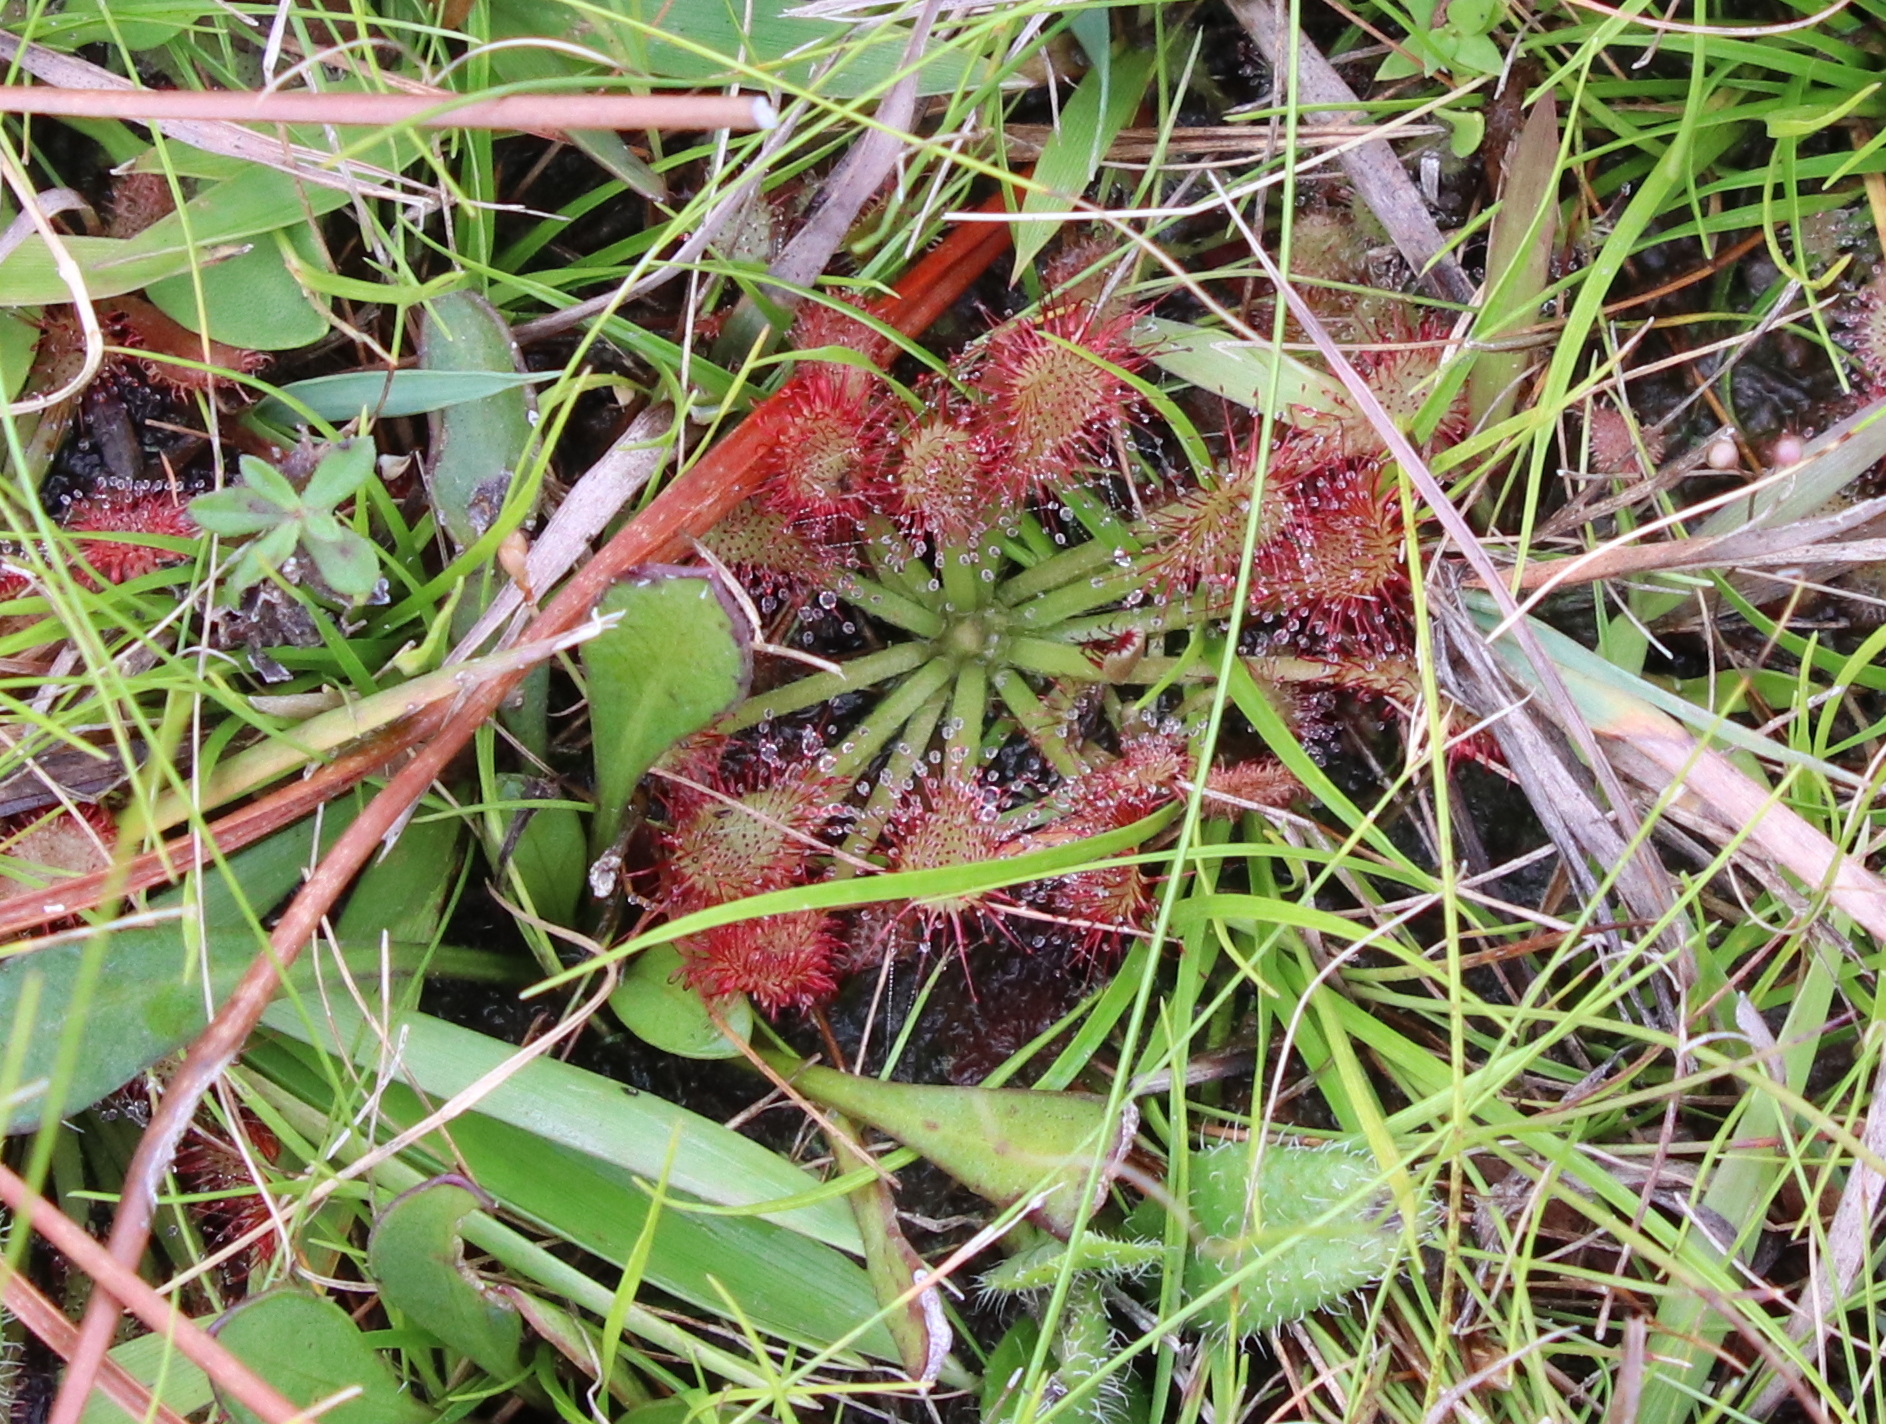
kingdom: Plantae
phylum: Tracheophyta
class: Magnoliopsida
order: Caryophyllales
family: Droseraceae
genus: Drosera
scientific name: Drosera capillaris
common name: Pink sundew
